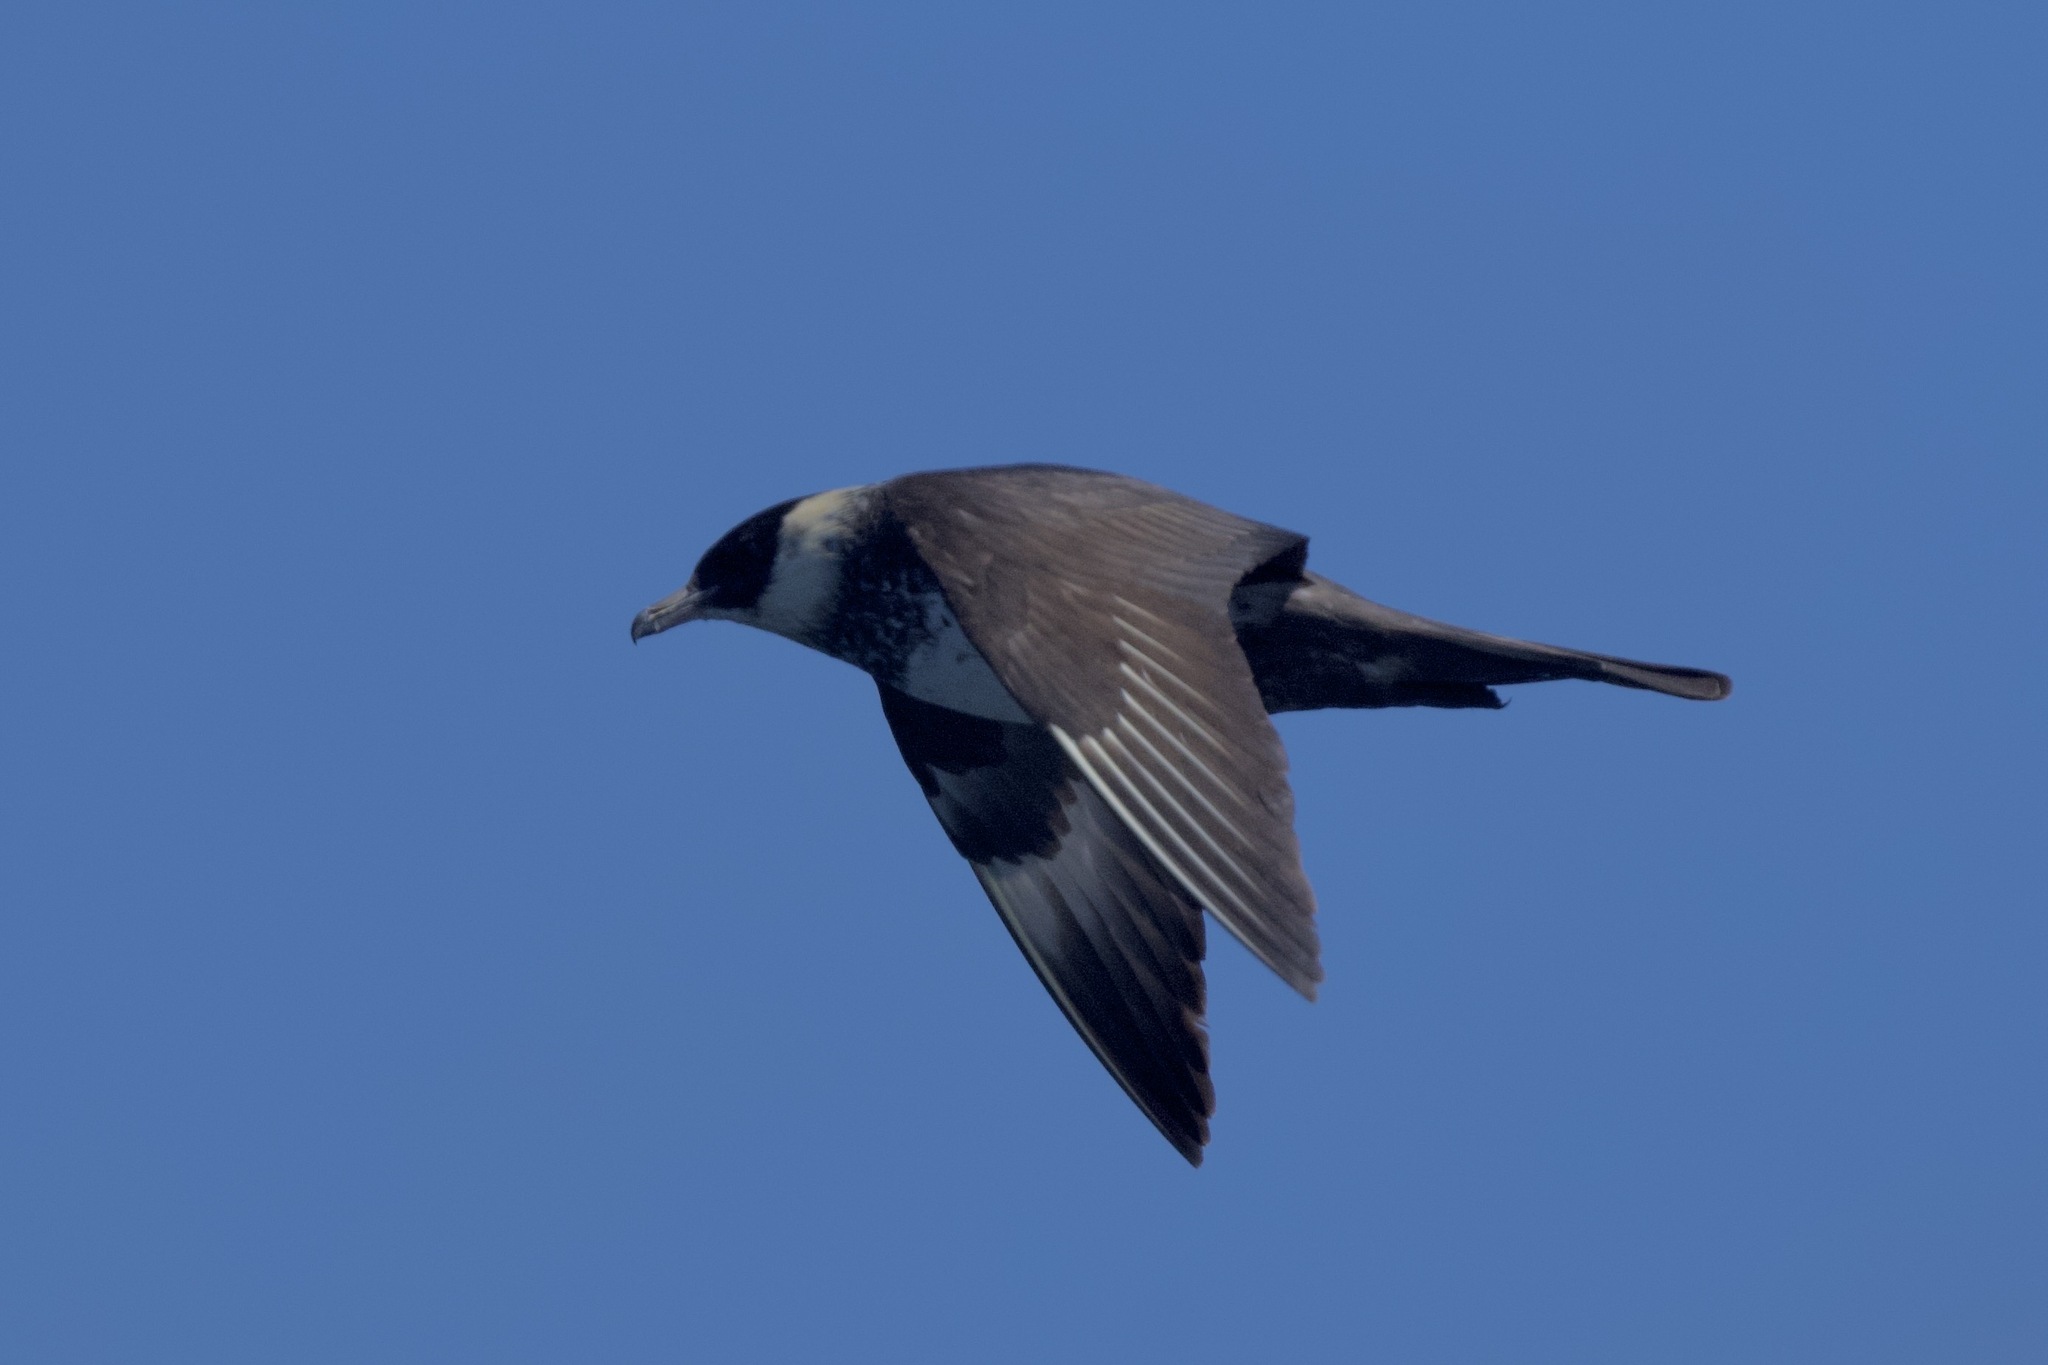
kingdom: Animalia
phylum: Chordata
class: Aves
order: Charadriiformes
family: Stercorariidae
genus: Stercorarius
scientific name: Stercorarius pomarinus
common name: Pomarine jaeger
